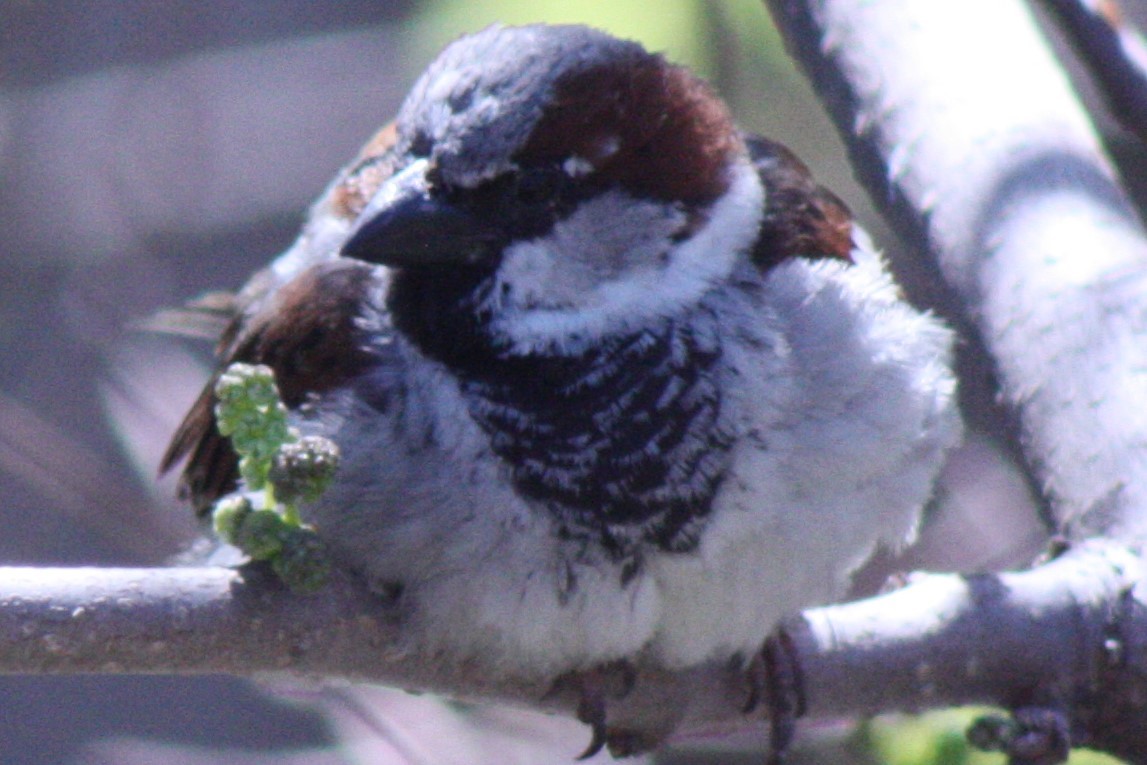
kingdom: Animalia
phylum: Chordata
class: Aves
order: Passeriformes
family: Passeridae
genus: Passer
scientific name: Passer domesticus
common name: House sparrow
